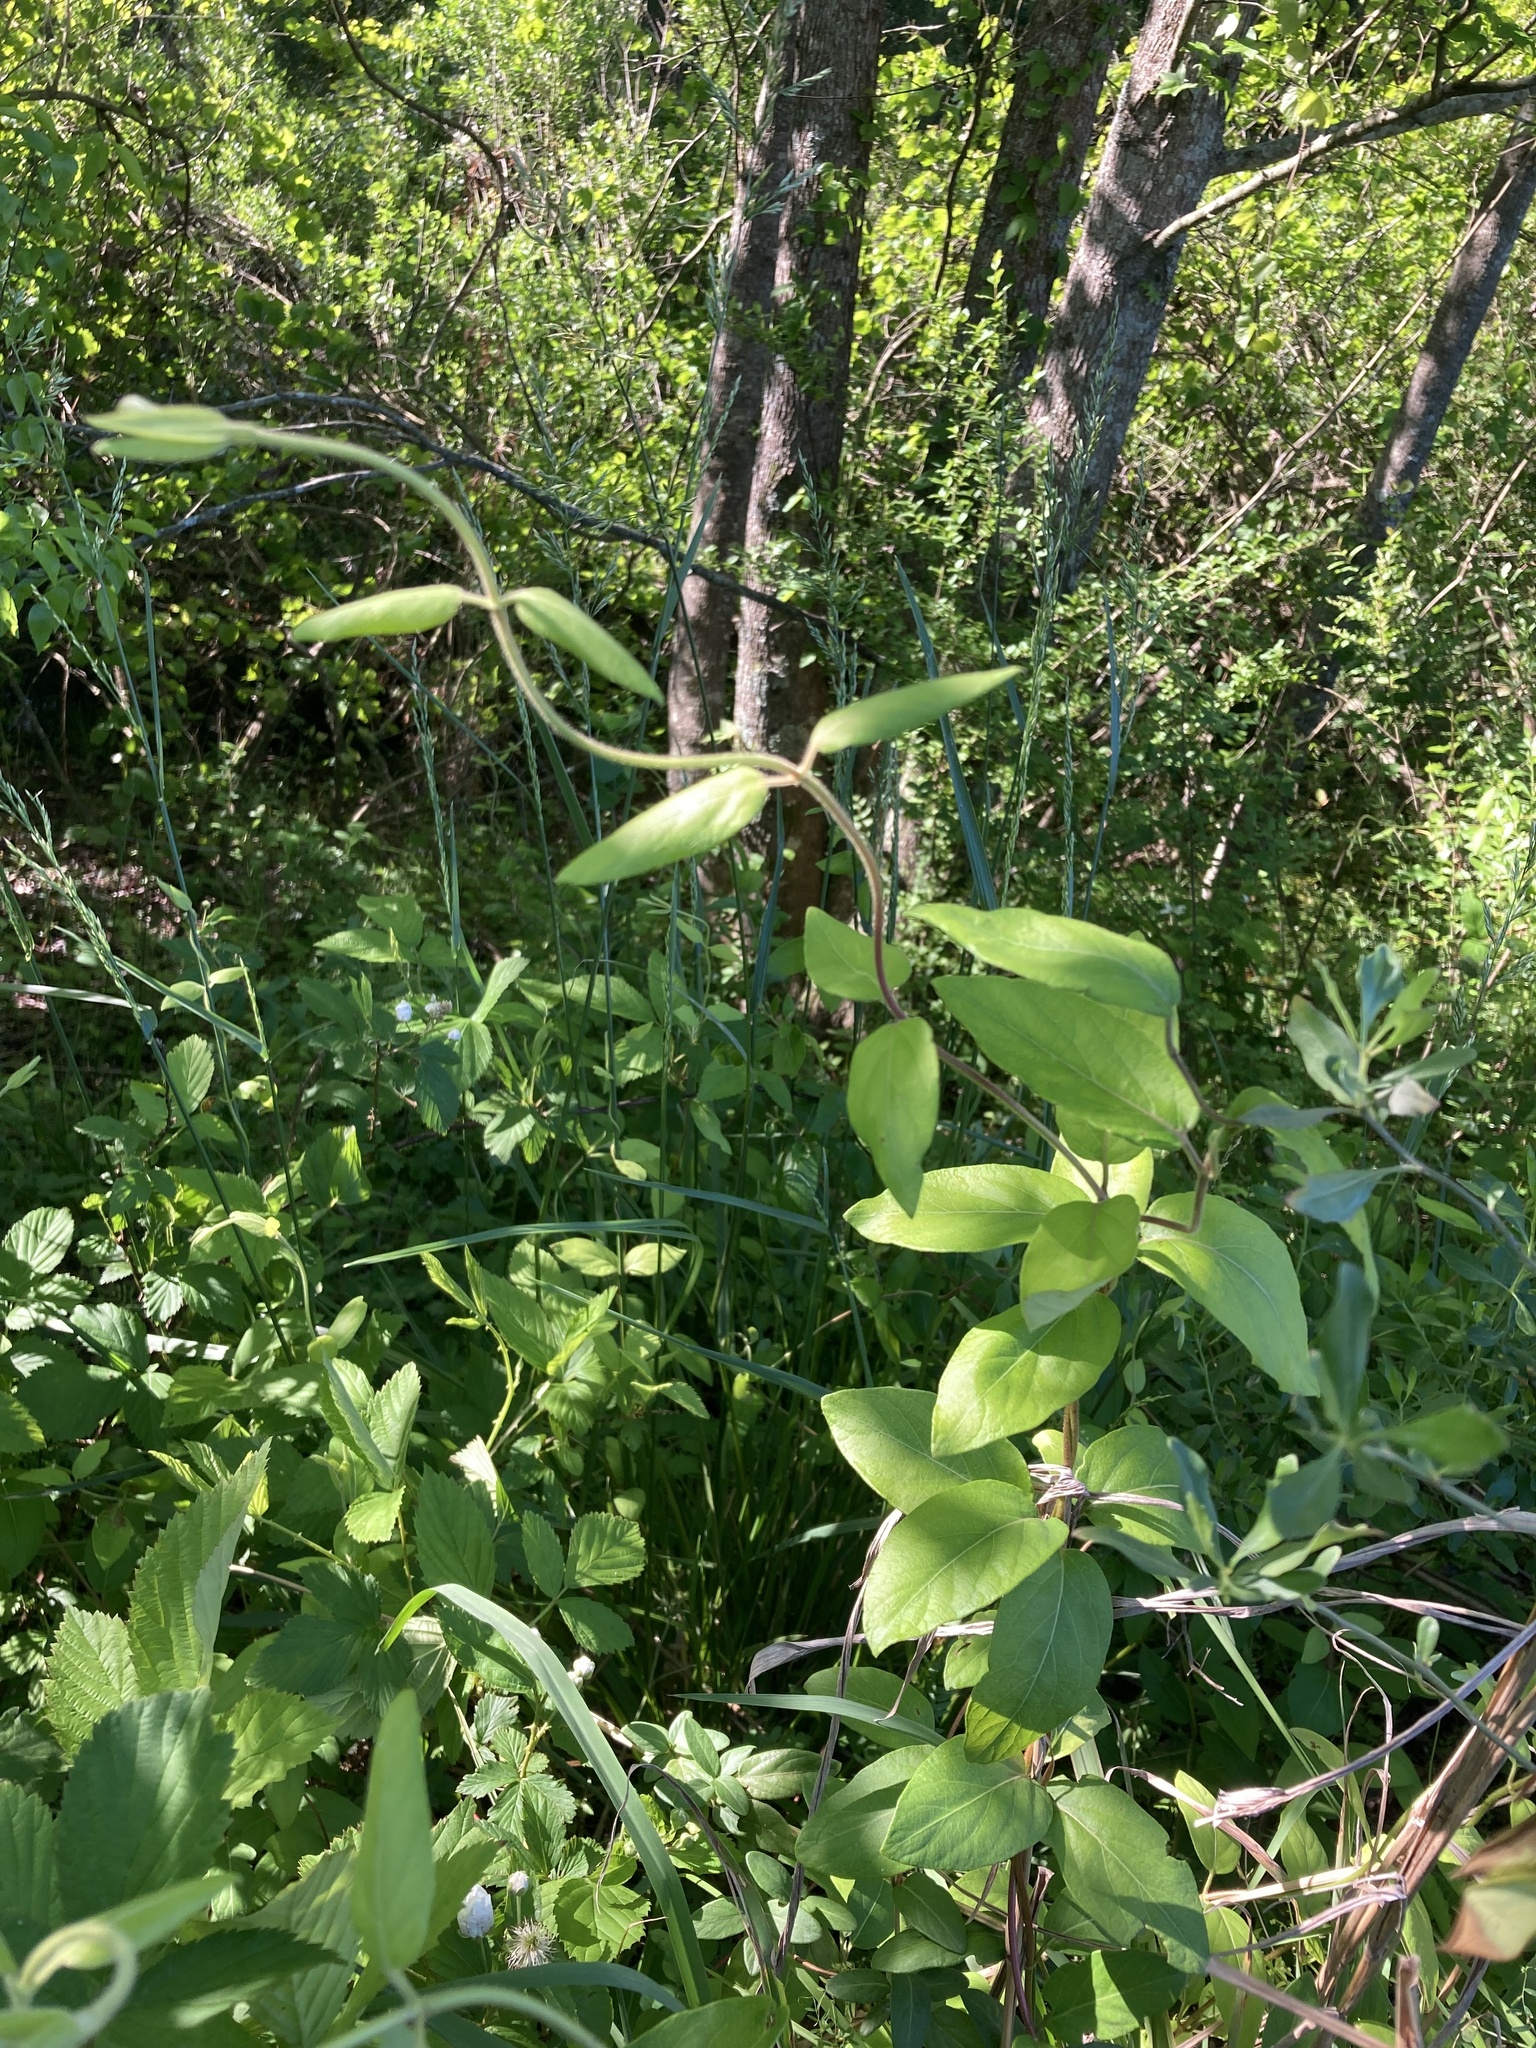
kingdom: Plantae
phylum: Tracheophyta
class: Magnoliopsida
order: Dipsacales
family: Caprifoliaceae
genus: Lonicera
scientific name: Lonicera japonica
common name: Japanese honeysuckle
